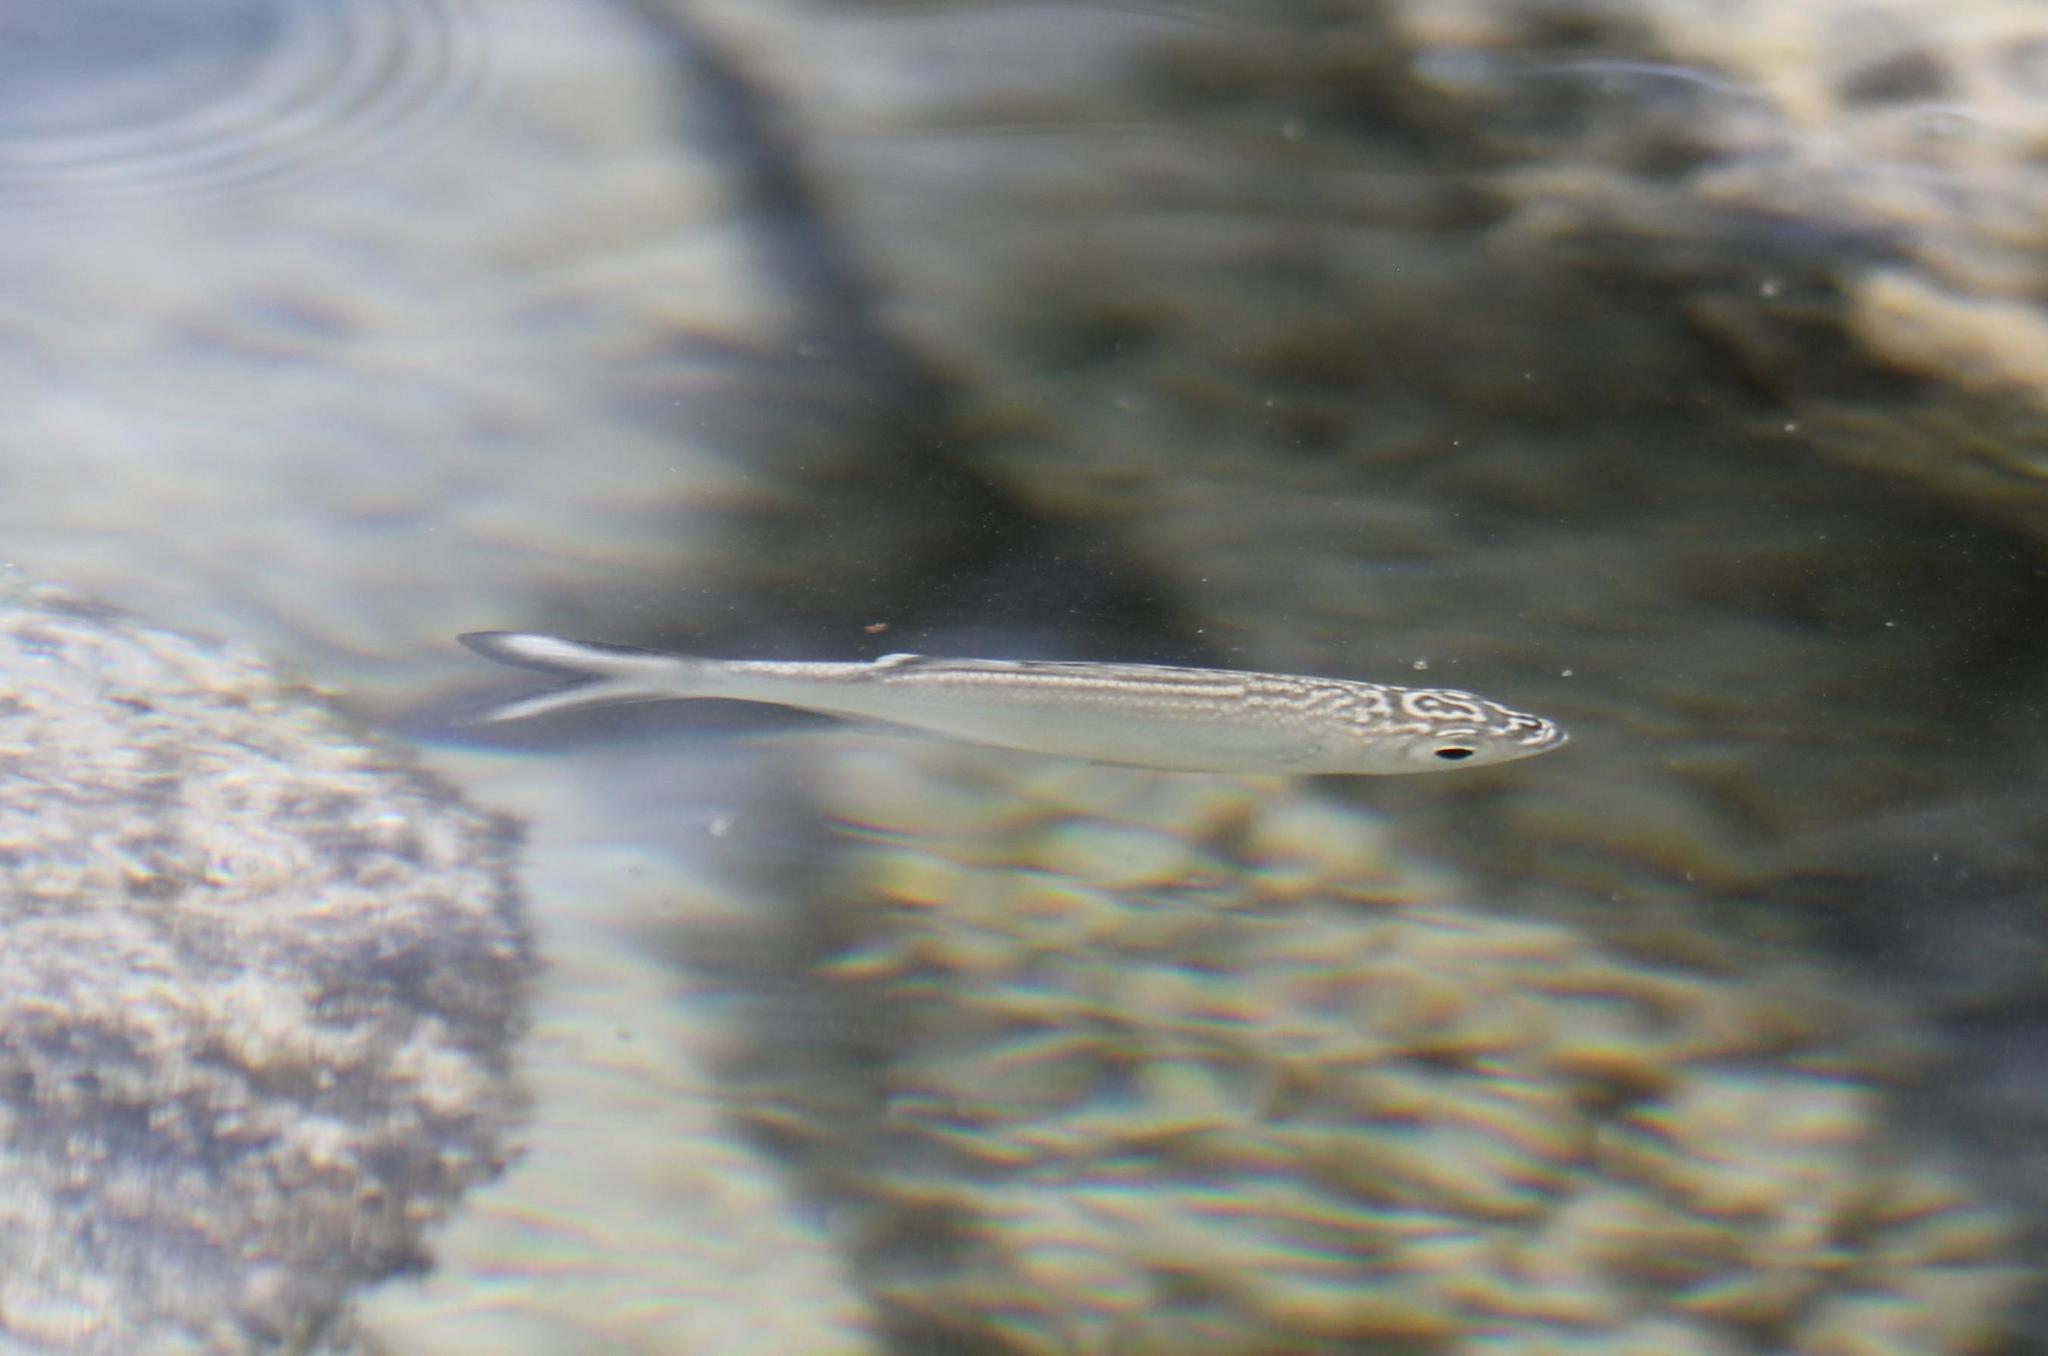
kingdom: Animalia
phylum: Chordata
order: Perciformes
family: Kuhliidae
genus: Kuhlia
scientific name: Kuhlia sandvicensis
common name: Hawaiian flagtail
